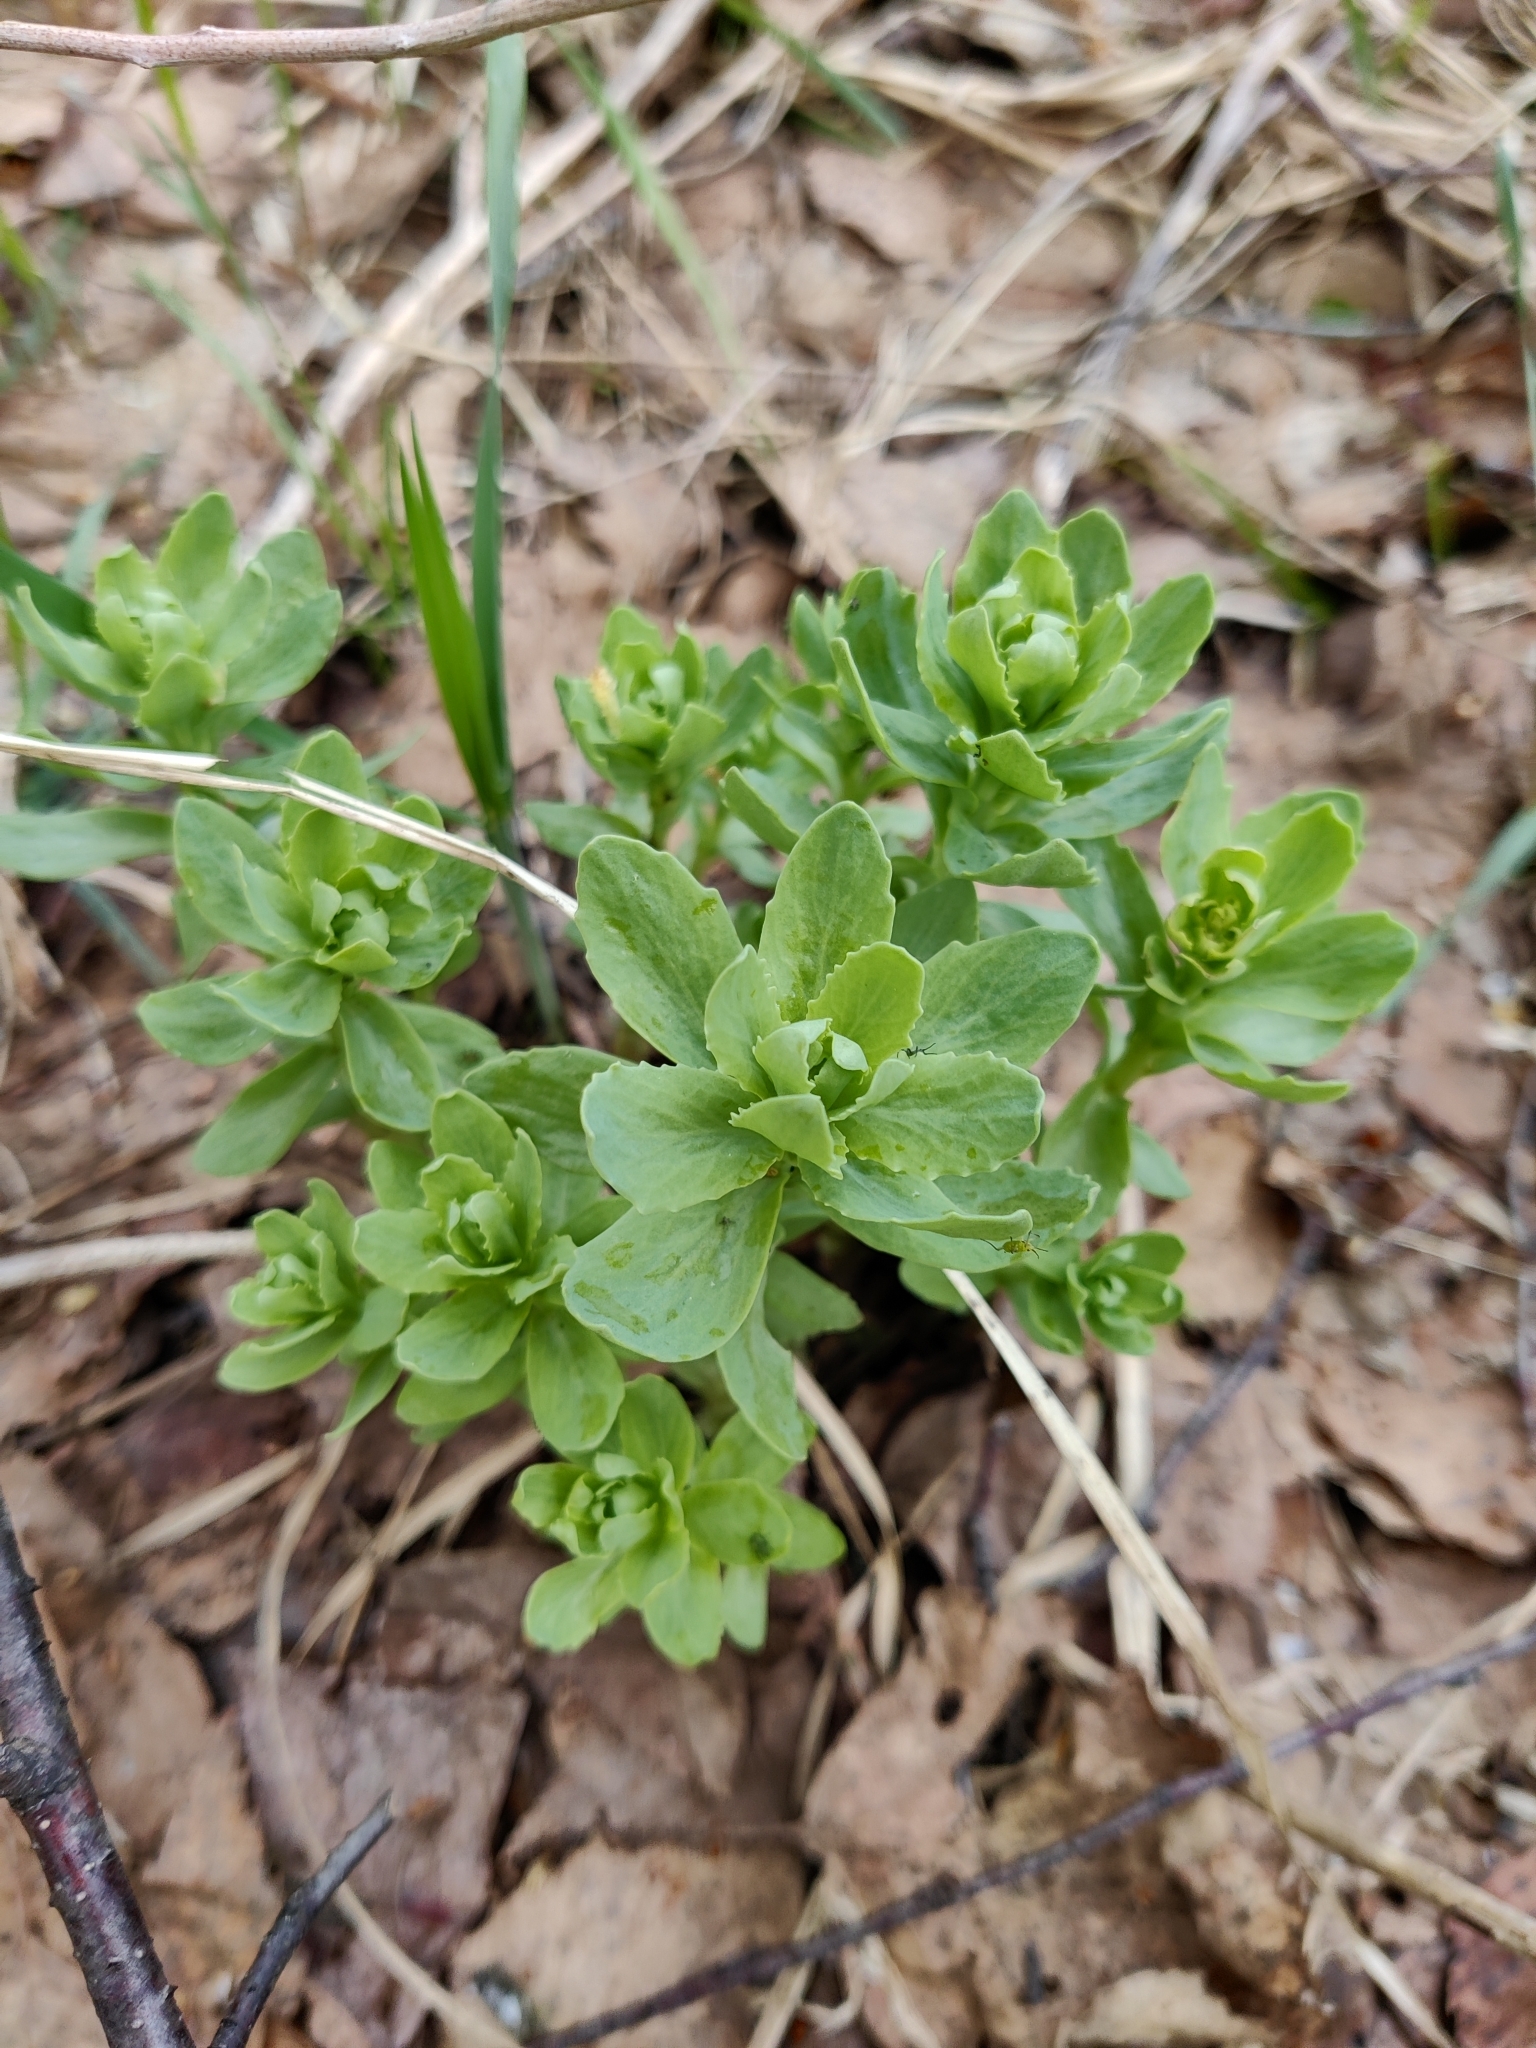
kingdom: Plantae
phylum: Tracheophyta
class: Magnoliopsida
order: Saxifragales
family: Crassulaceae
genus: Hylotelephium
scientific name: Hylotelephium telephium
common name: Live-forever
